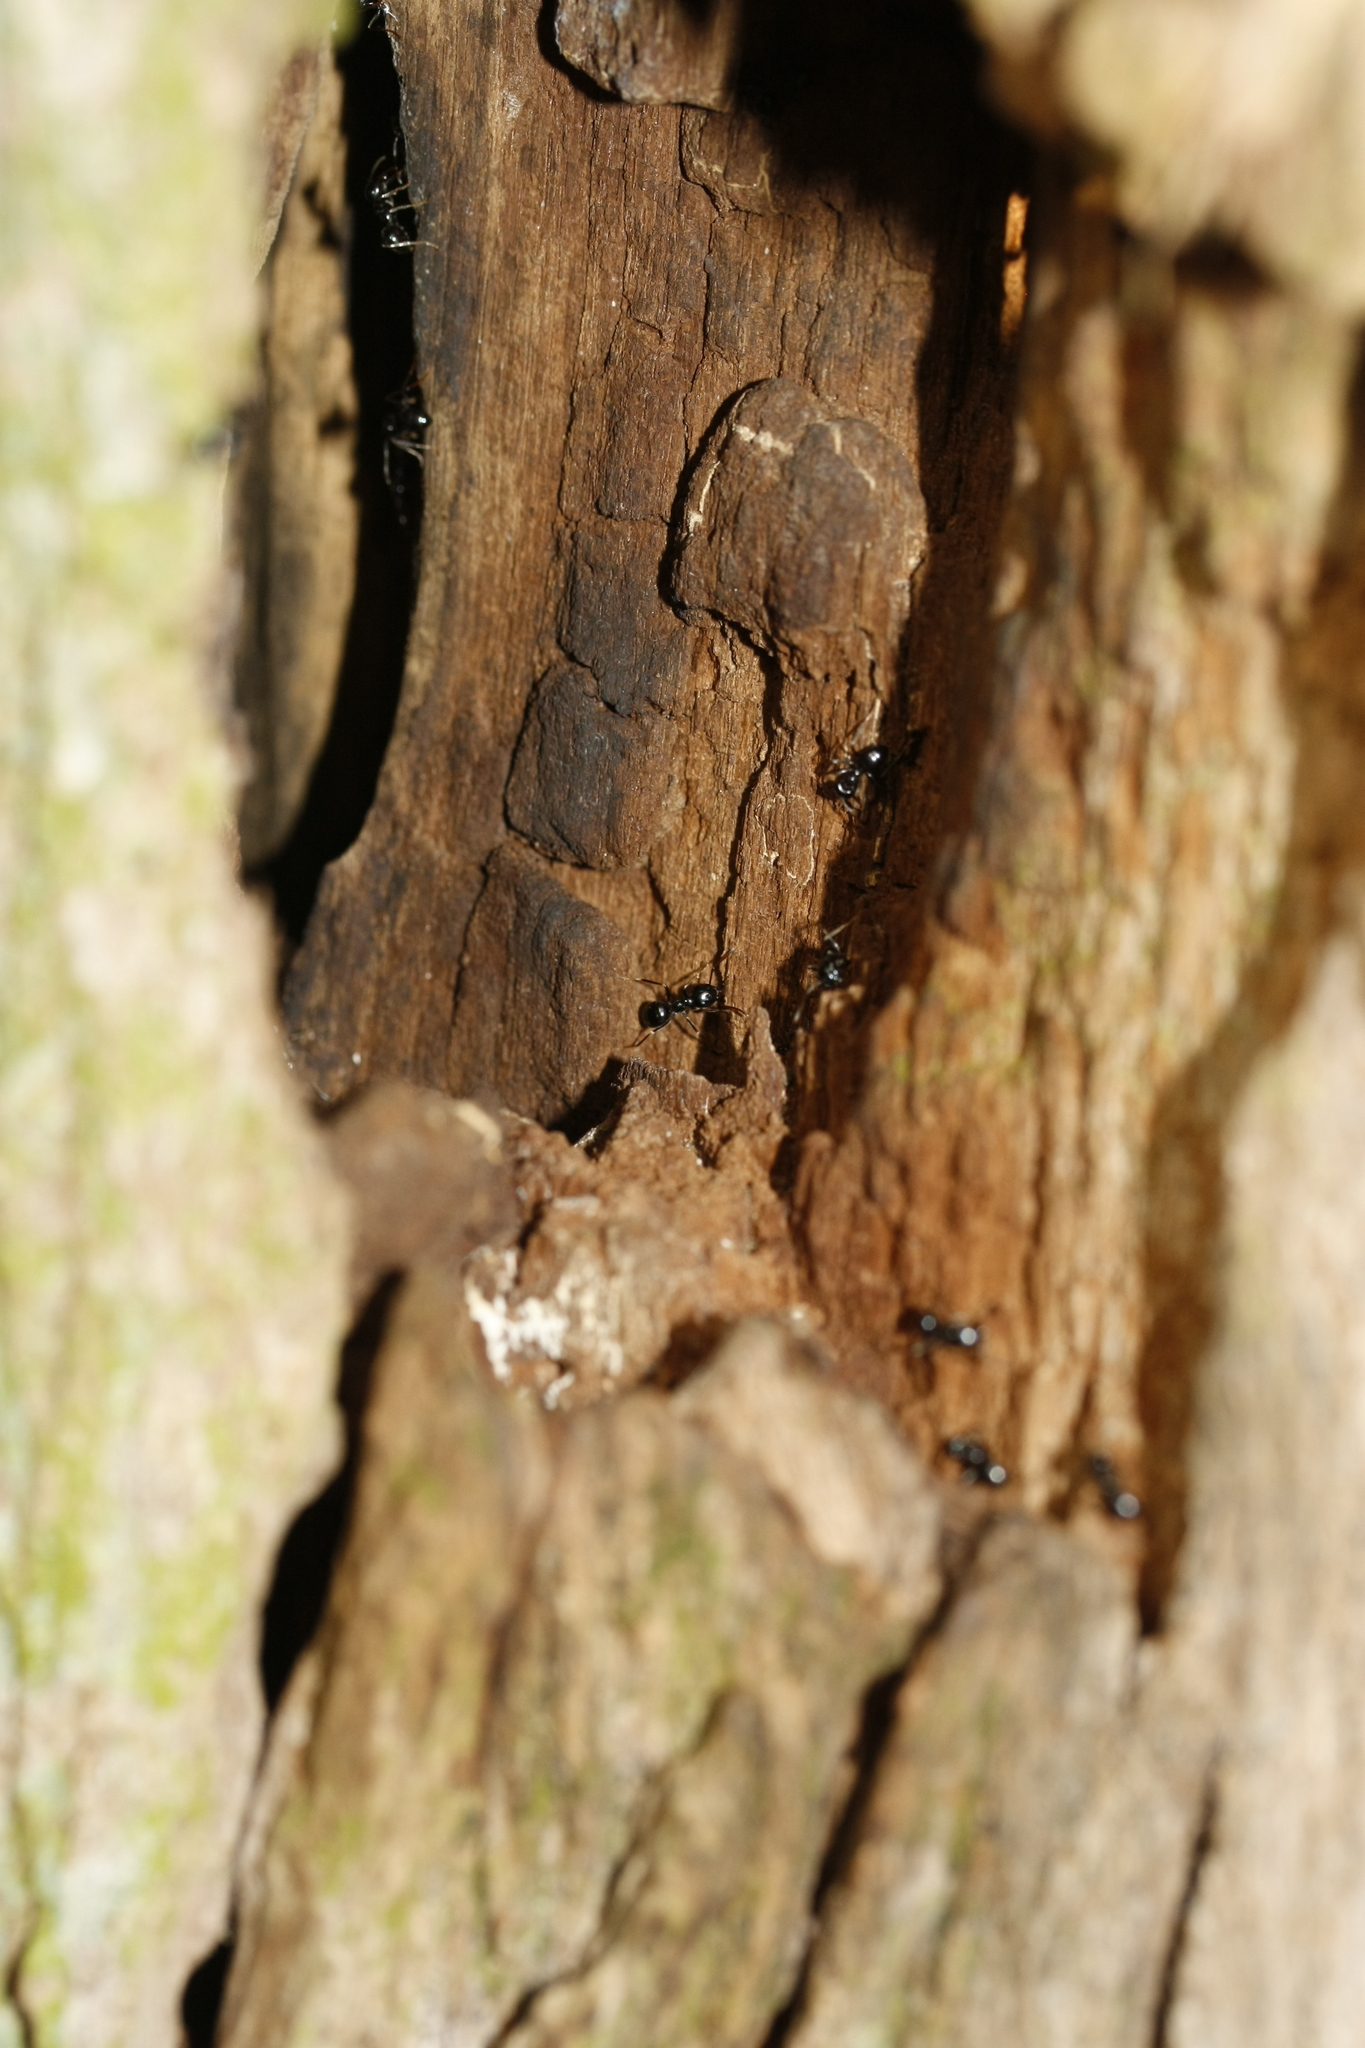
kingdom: Animalia
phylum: Arthropoda
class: Insecta
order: Hymenoptera
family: Formicidae
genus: Lasius
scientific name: Lasius fuliginosus
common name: Jet ant
